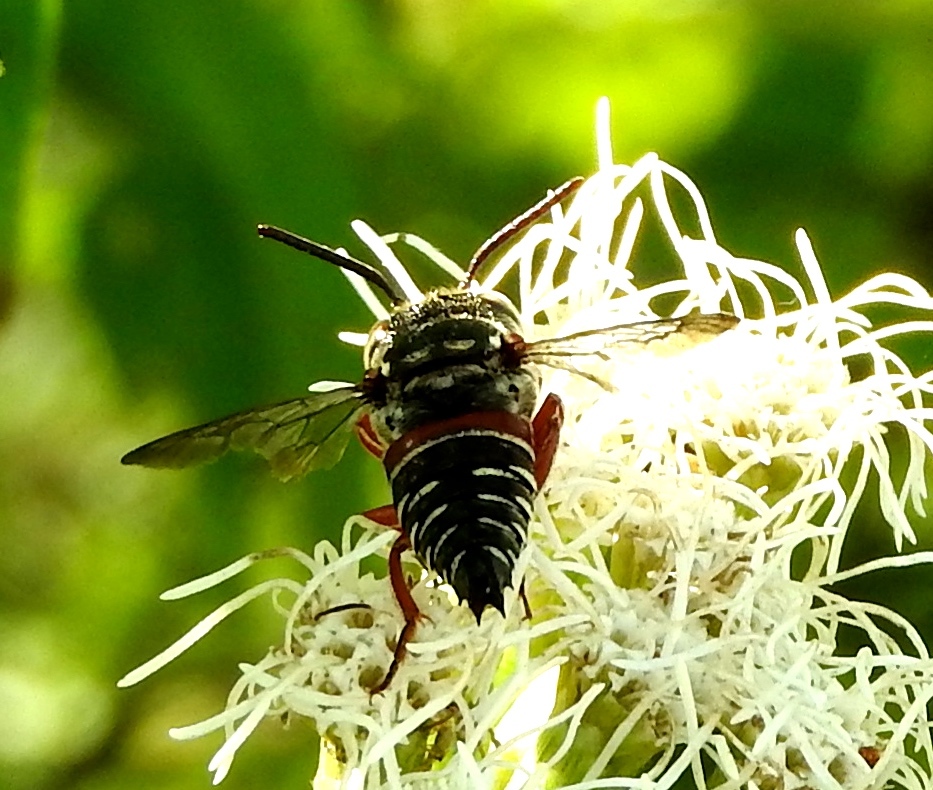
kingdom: Animalia
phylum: Arthropoda
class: Insecta
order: Hymenoptera
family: Megachilidae
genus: Coelioxys
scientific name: Coelioxys
